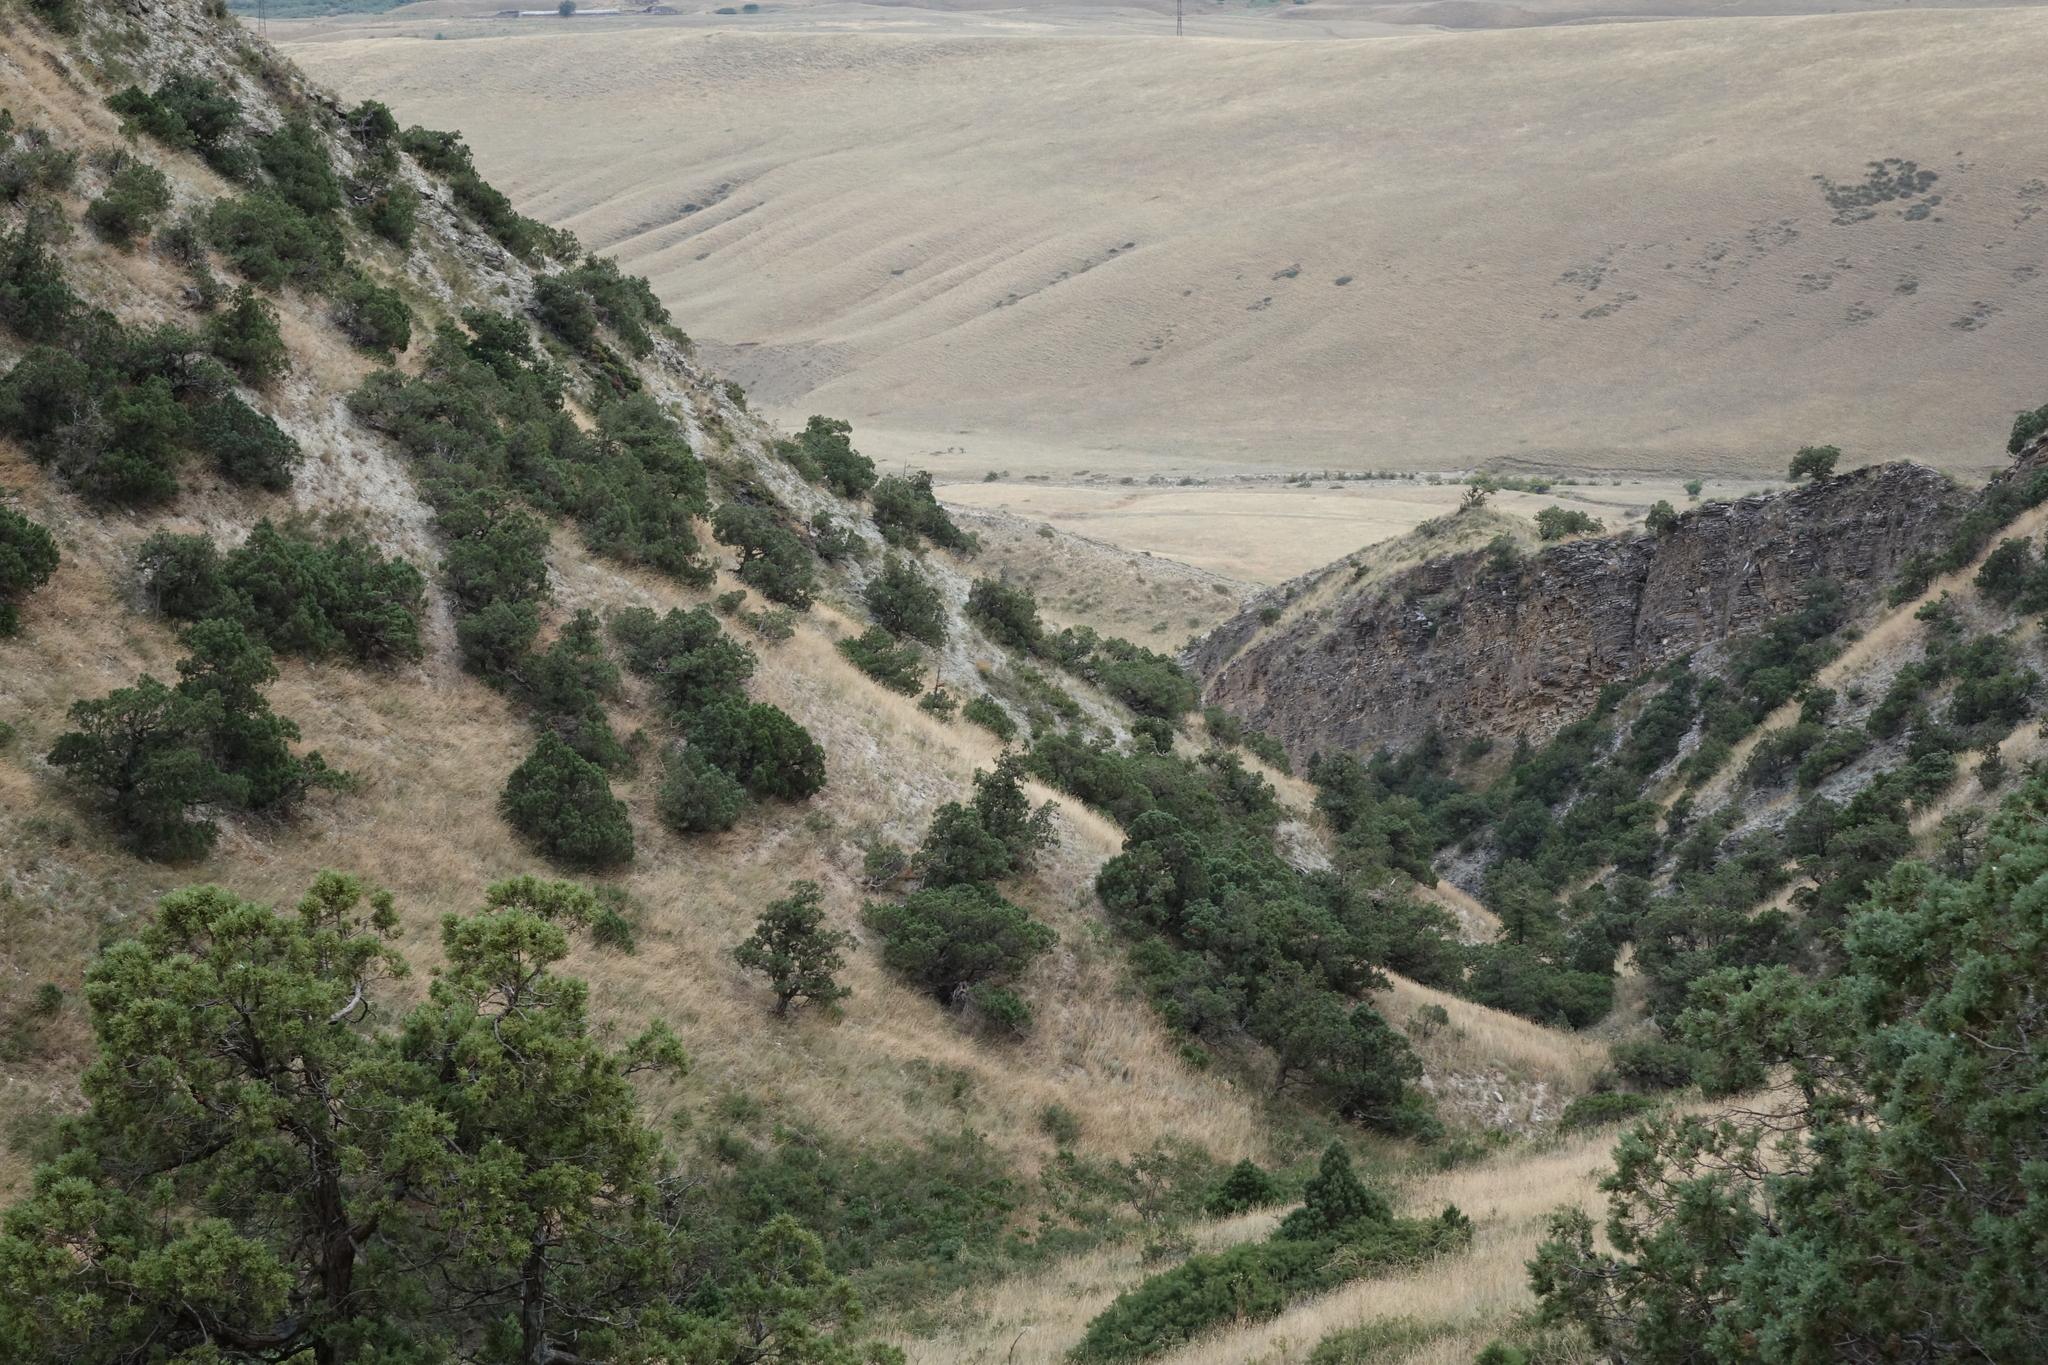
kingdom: Plantae
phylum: Tracheophyta
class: Pinopsida
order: Pinales
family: Cupressaceae
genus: Juniperus
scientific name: Juniperus excelsa
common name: Crimean juniper
